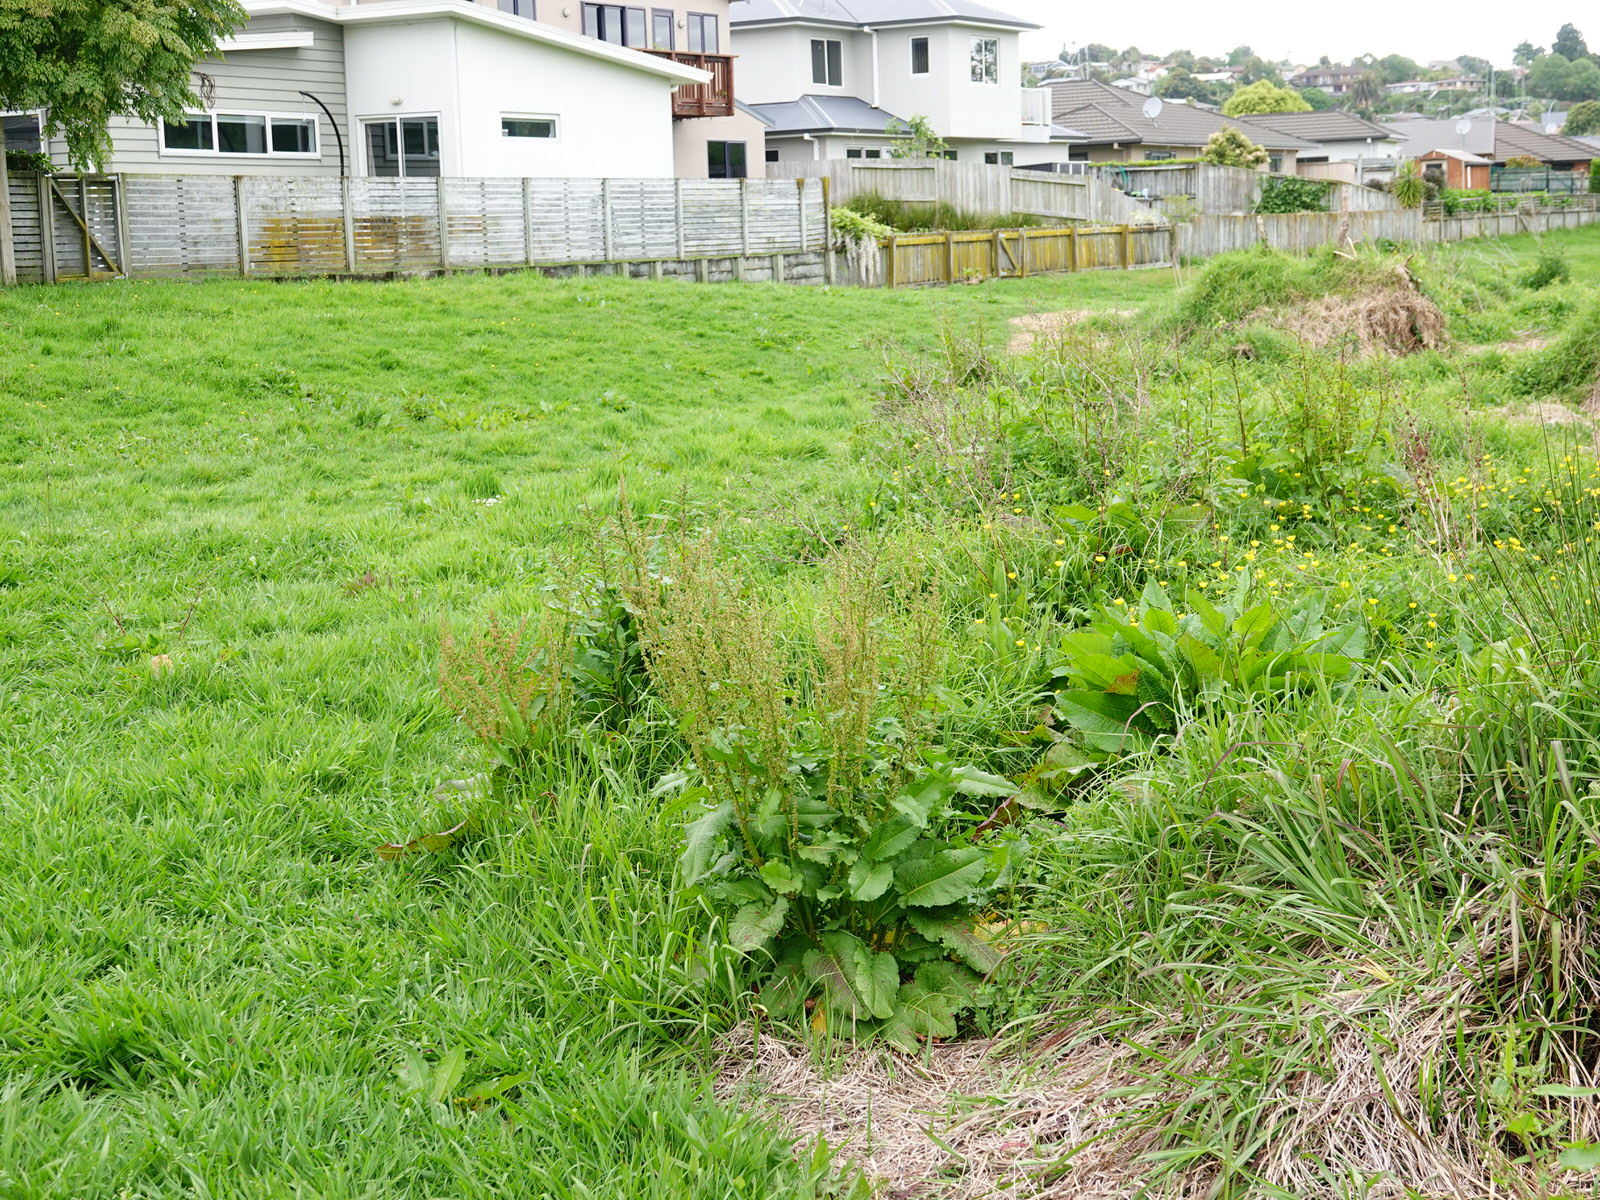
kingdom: Plantae
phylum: Tracheophyta
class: Magnoliopsida
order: Caryophyllales
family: Polygonaceae
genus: Rumex
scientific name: Rumex obtusifolius
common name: Bitter dock
